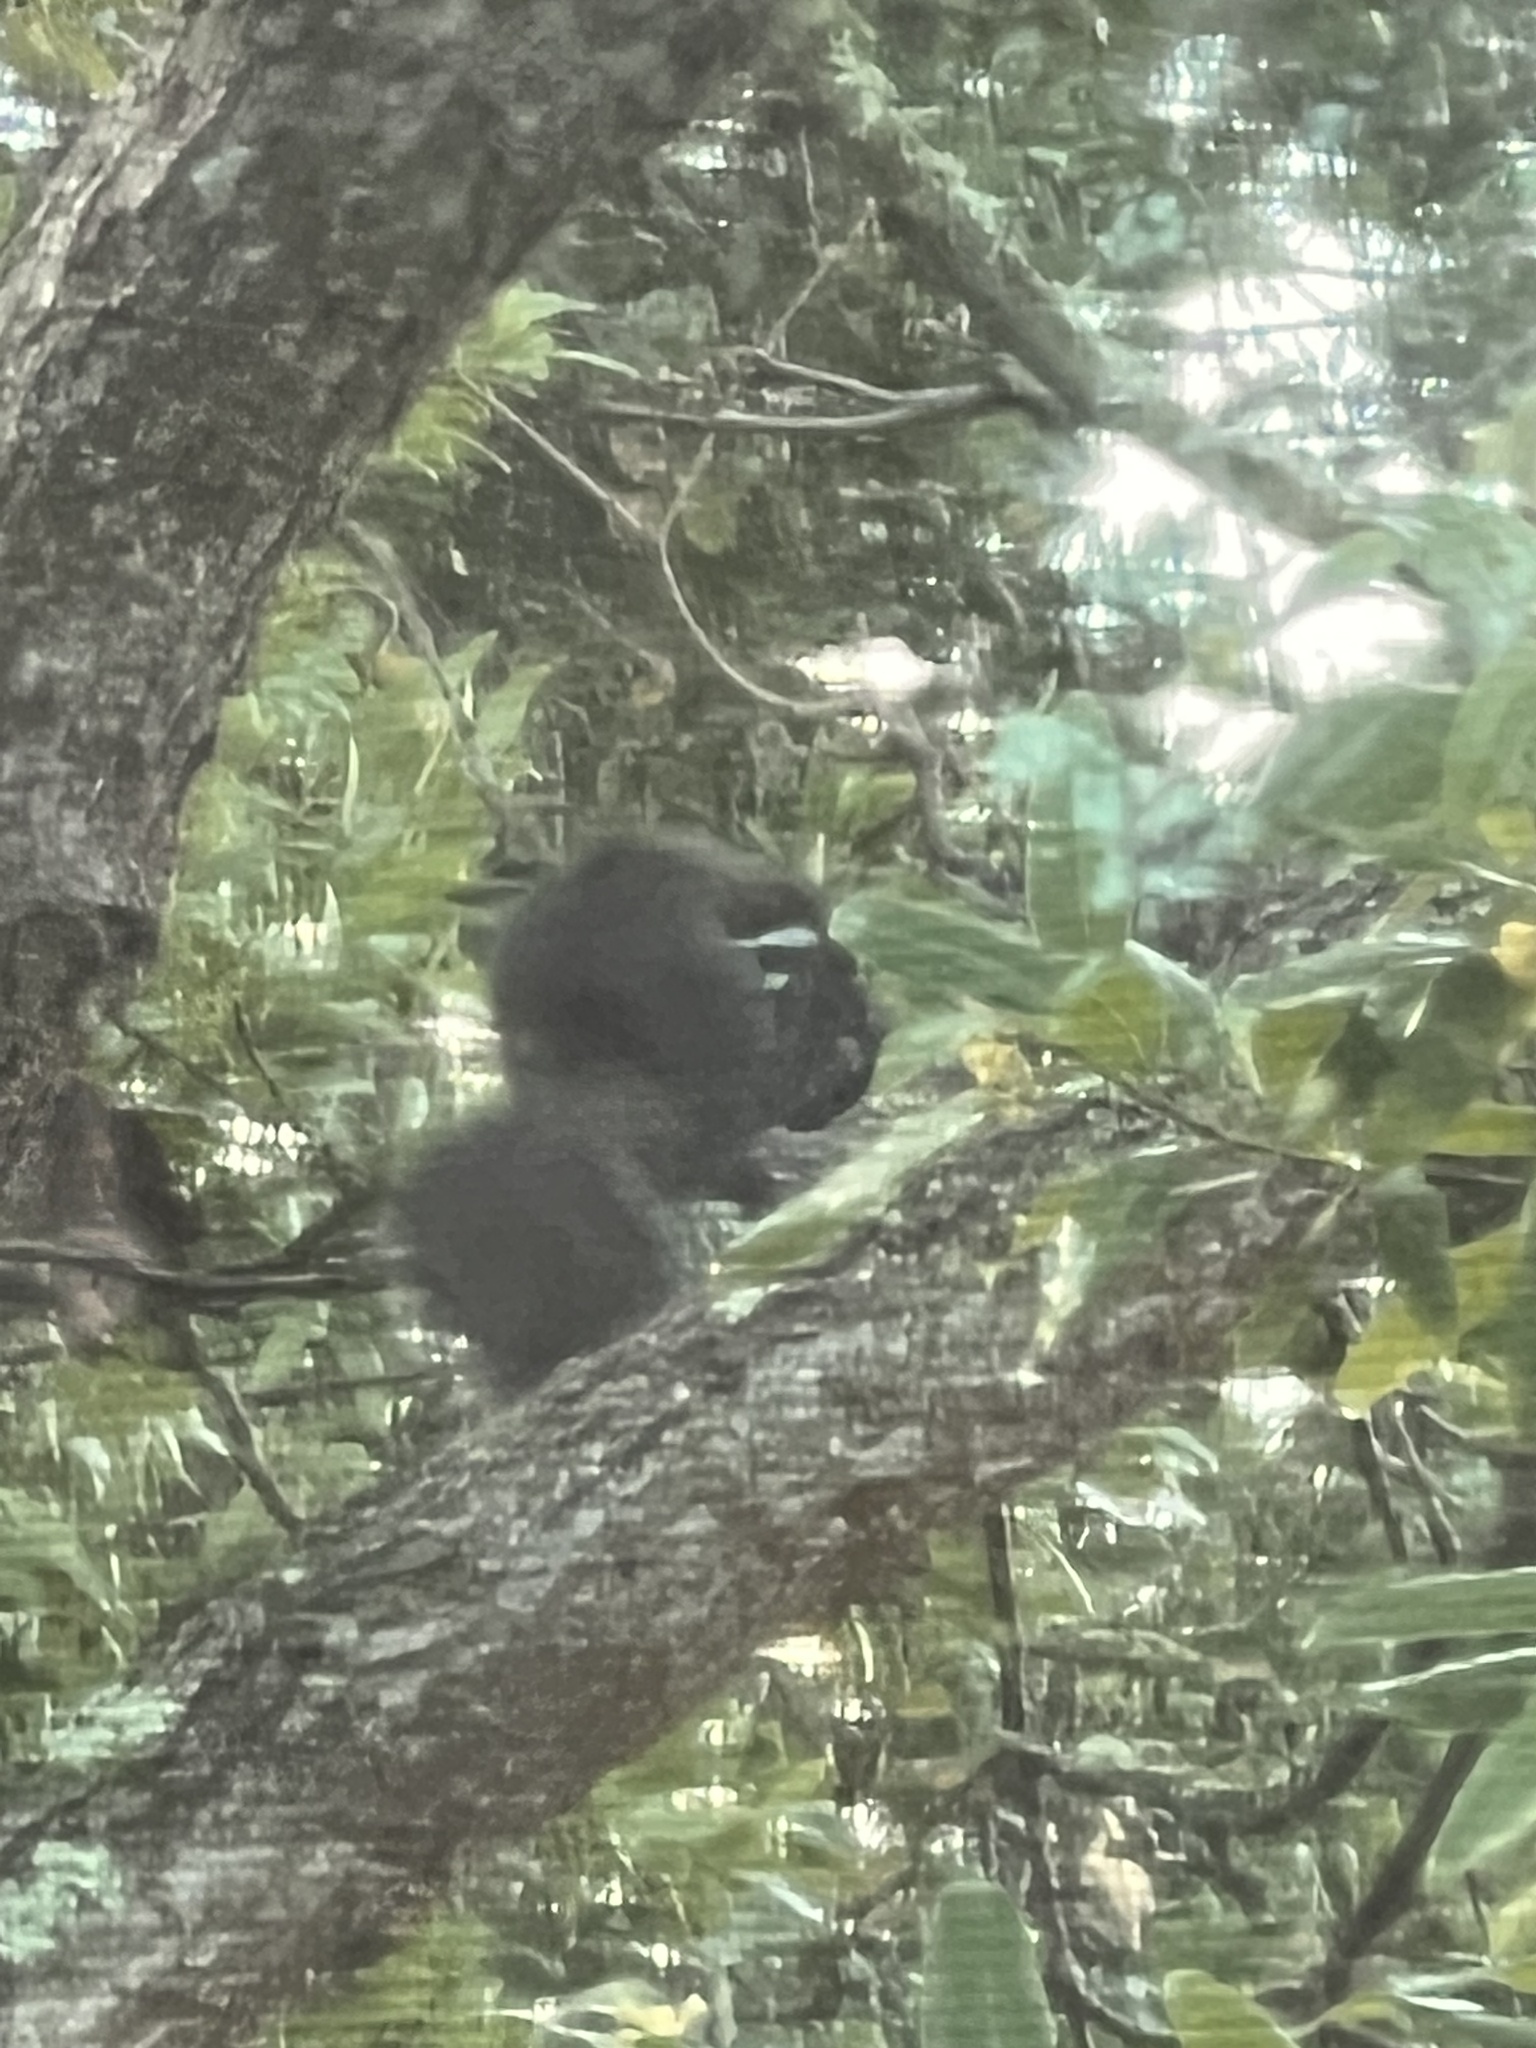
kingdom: Animalia
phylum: Chordata
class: Mammalia
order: Rodentia
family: Sciuridae
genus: Sciurus
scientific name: Sciurus carolinensis
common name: Eastern gray squirrel
